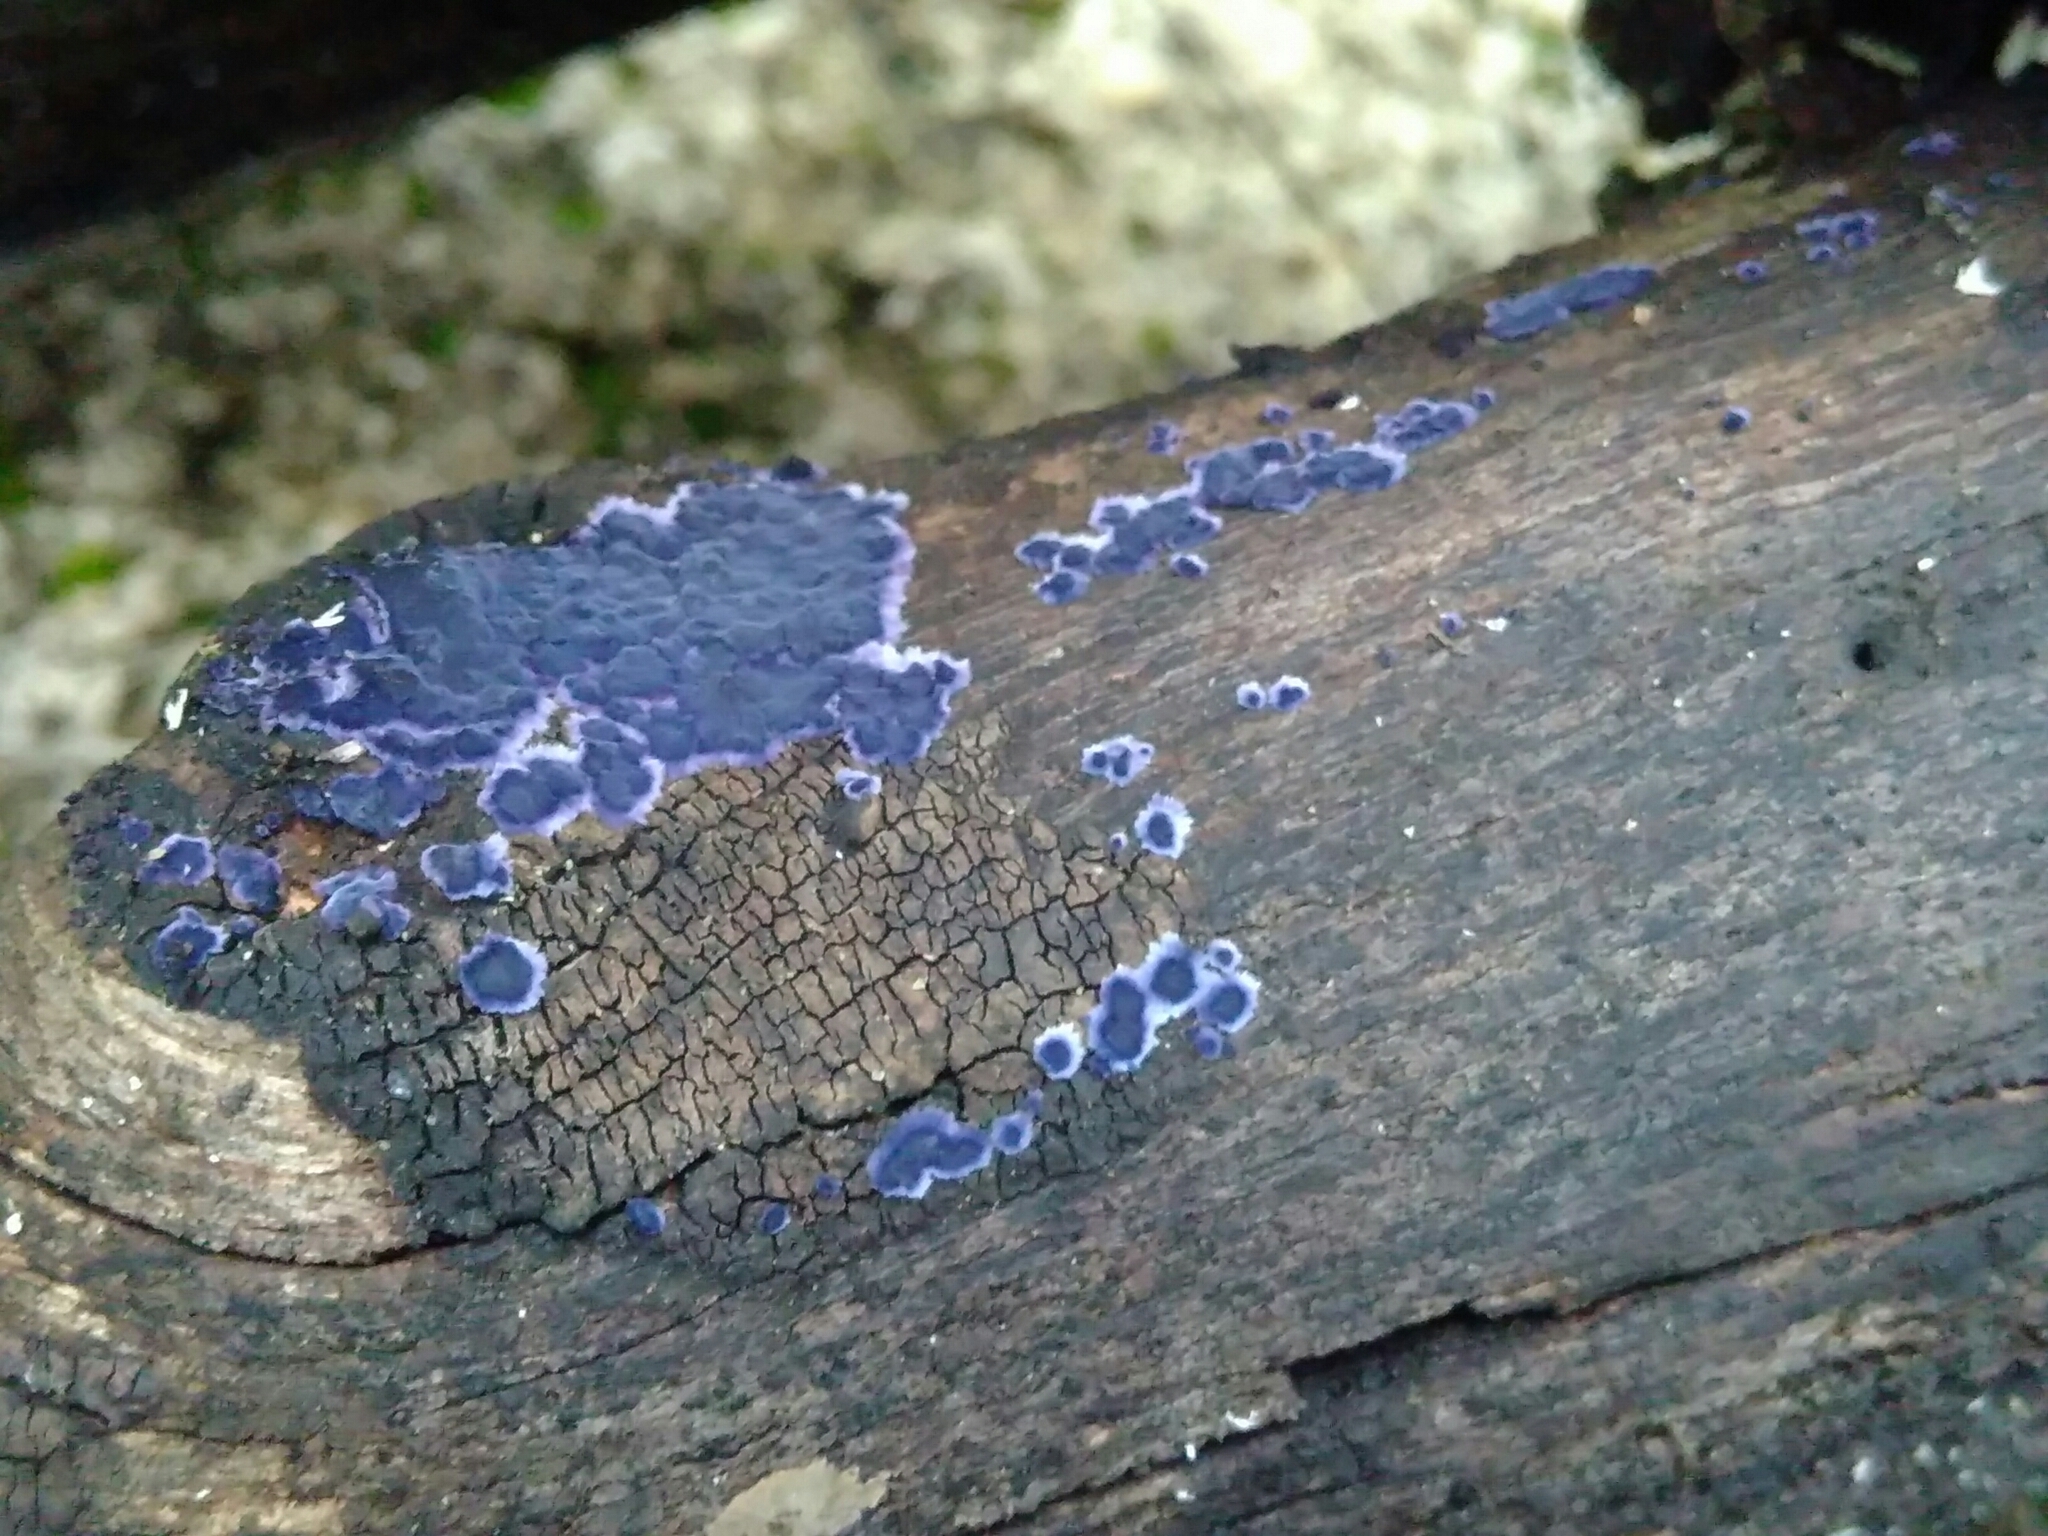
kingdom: Fungi
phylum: Basidiomycota
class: Agaricomycetes
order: Polyporales
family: Phanerochaetaceae
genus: Terana
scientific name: Terana coerulea
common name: Cobalt crust
